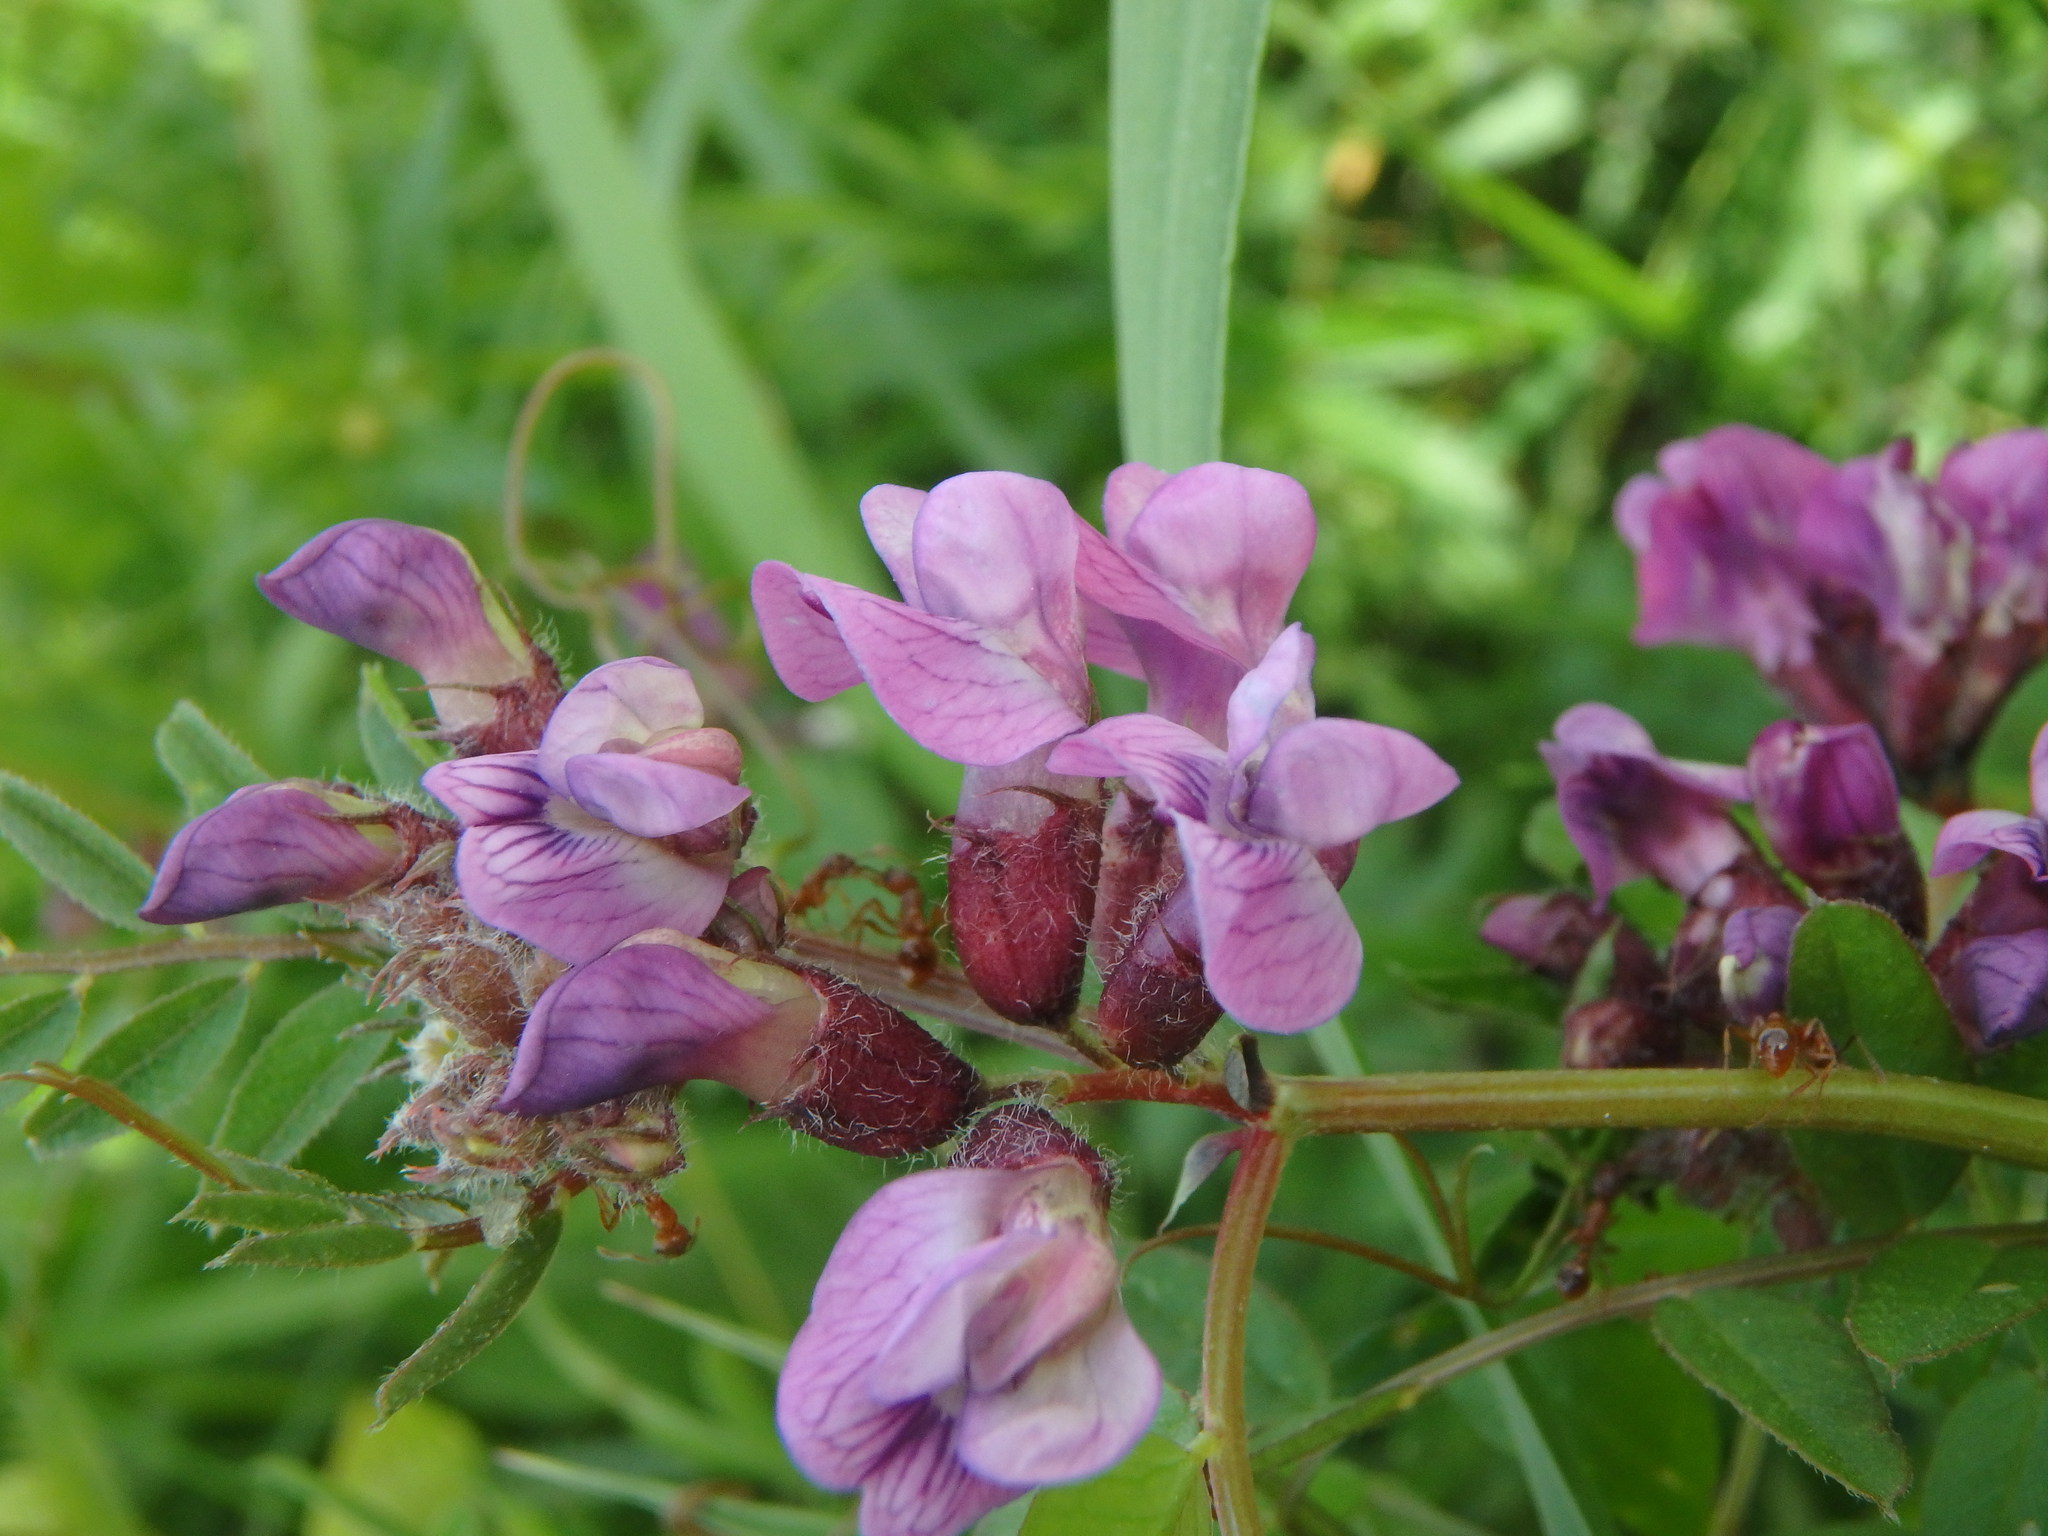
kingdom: Plantae
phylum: Tracheophyta
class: Magnoliopsida
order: Fabales
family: Fabaceae
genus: Vicia
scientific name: Vicia sepium
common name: Bush vetch
